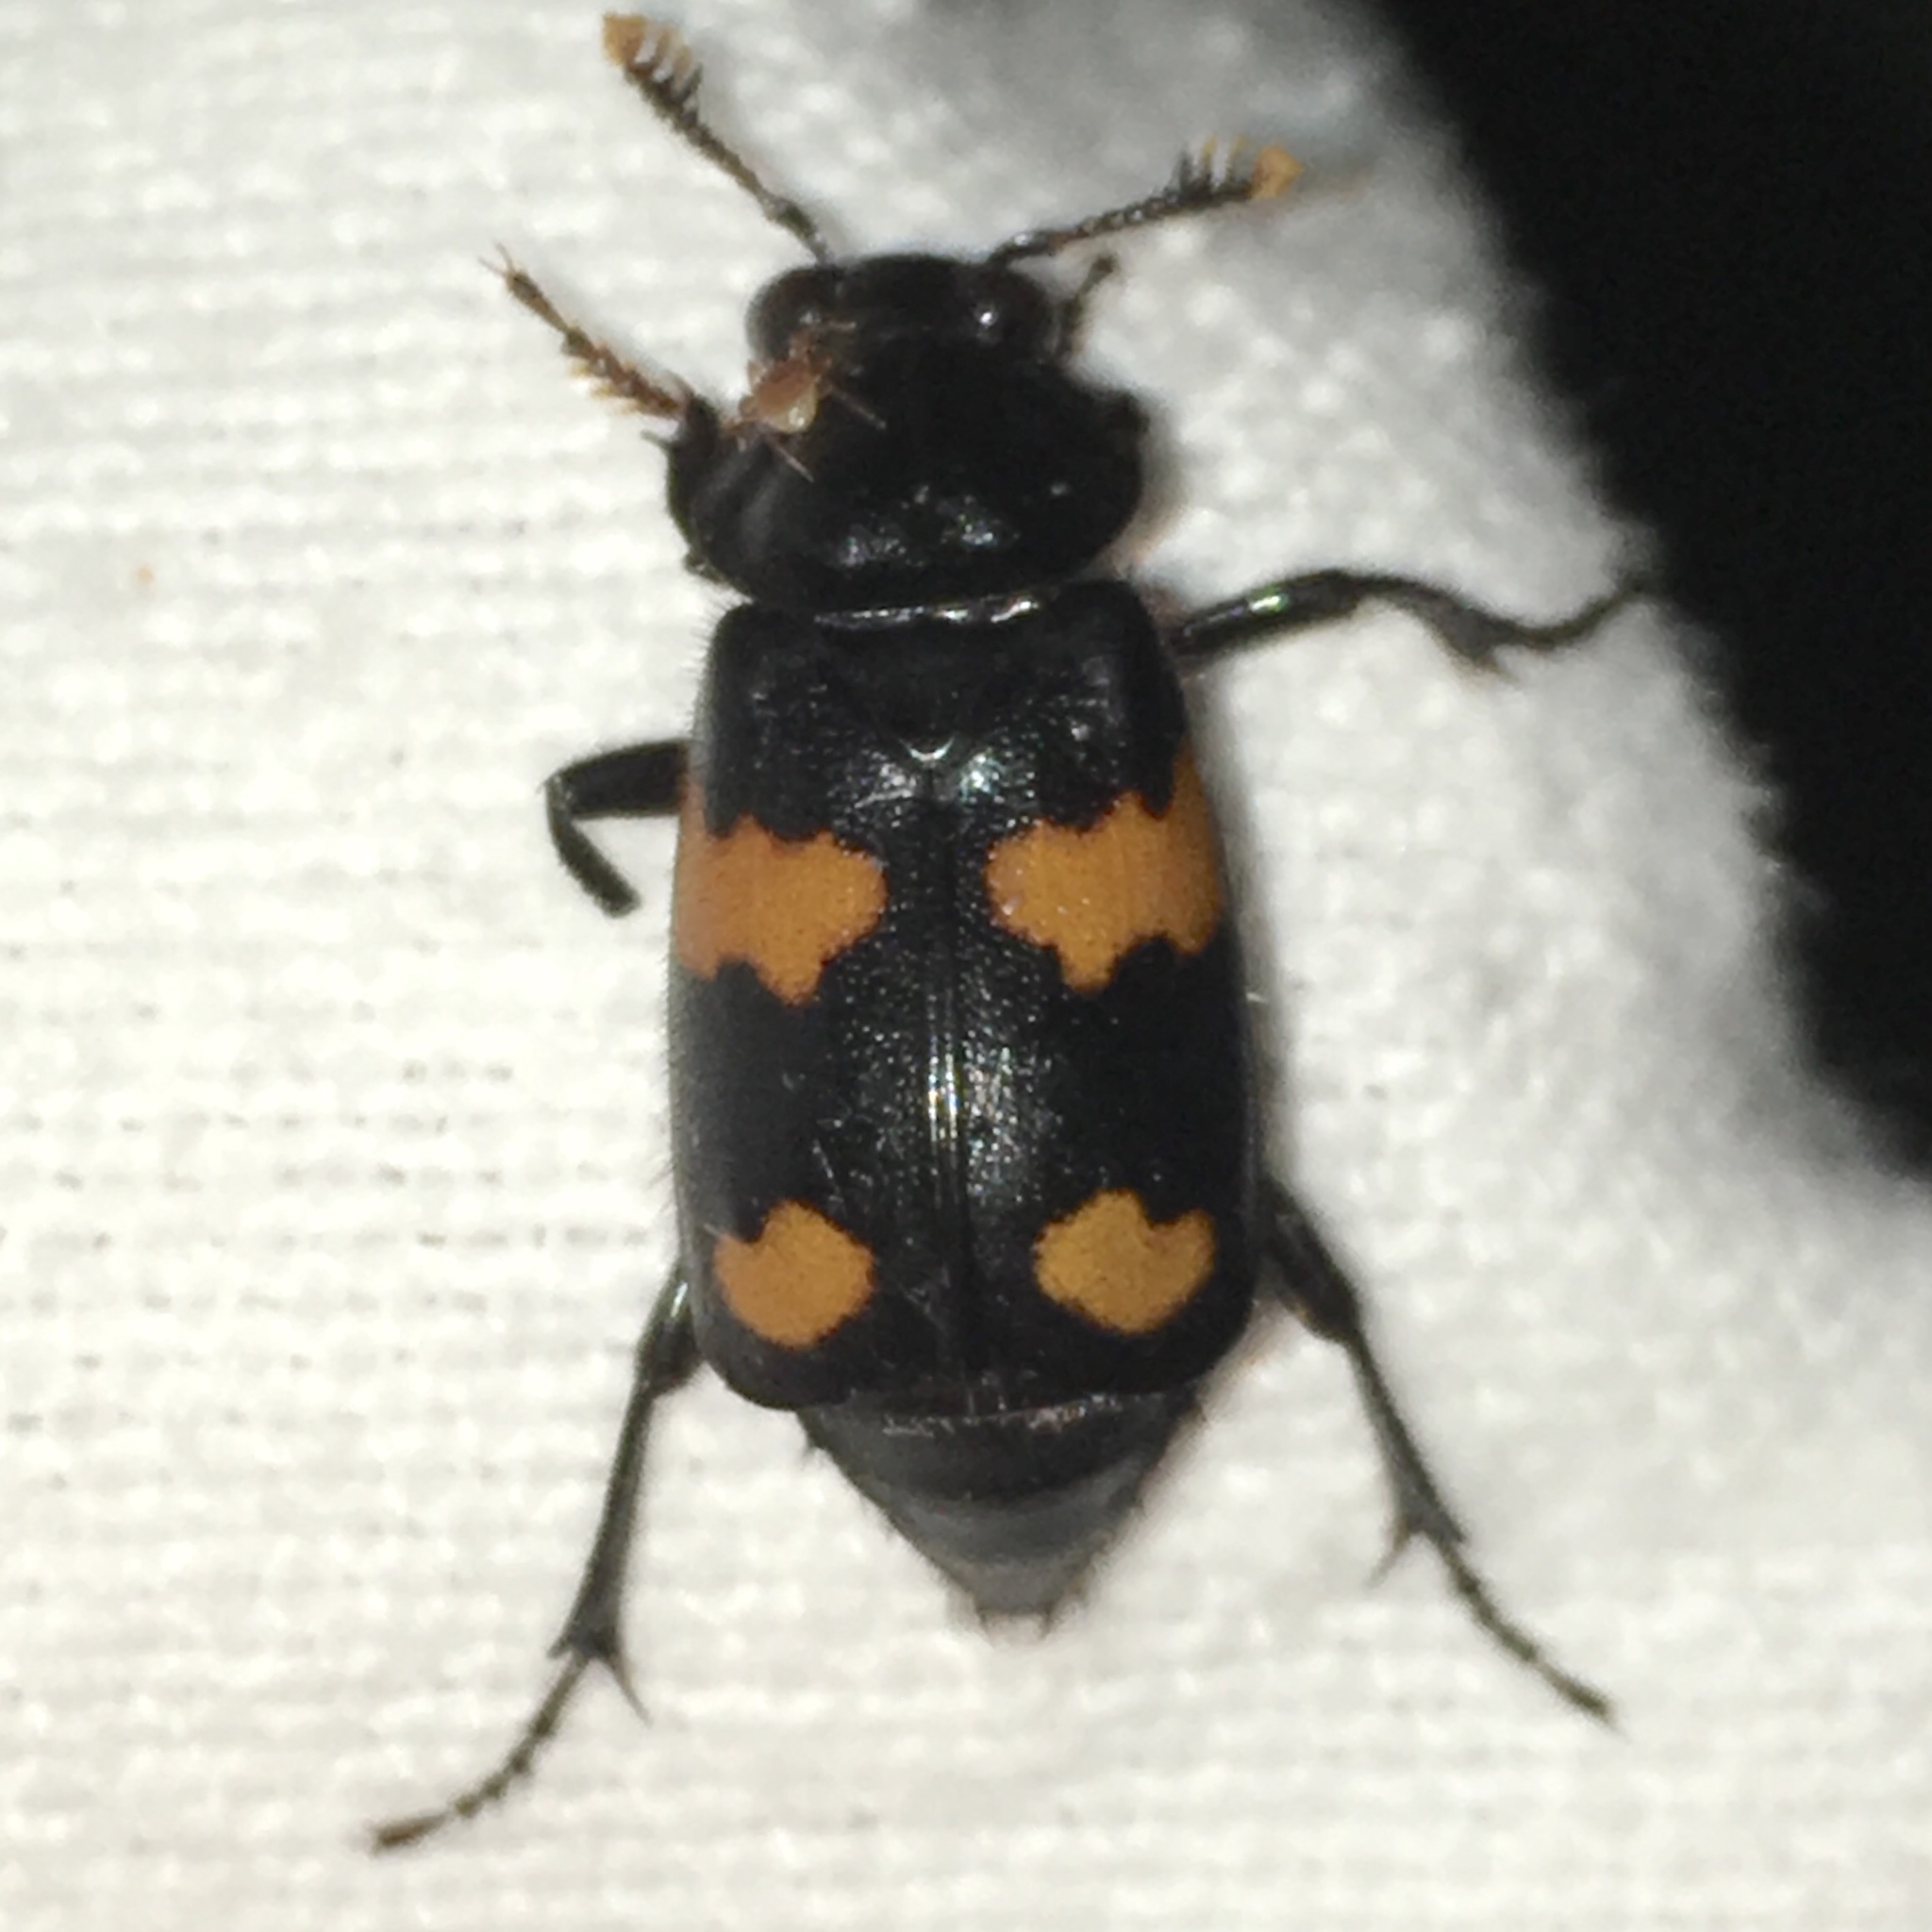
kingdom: Animalia
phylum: Arthropoda
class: Insecta
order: Coleoptera
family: Staphylinidae
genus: Nicrophorus
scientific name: Nicrophorus orbicollis
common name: Roundneck sexton beetle
